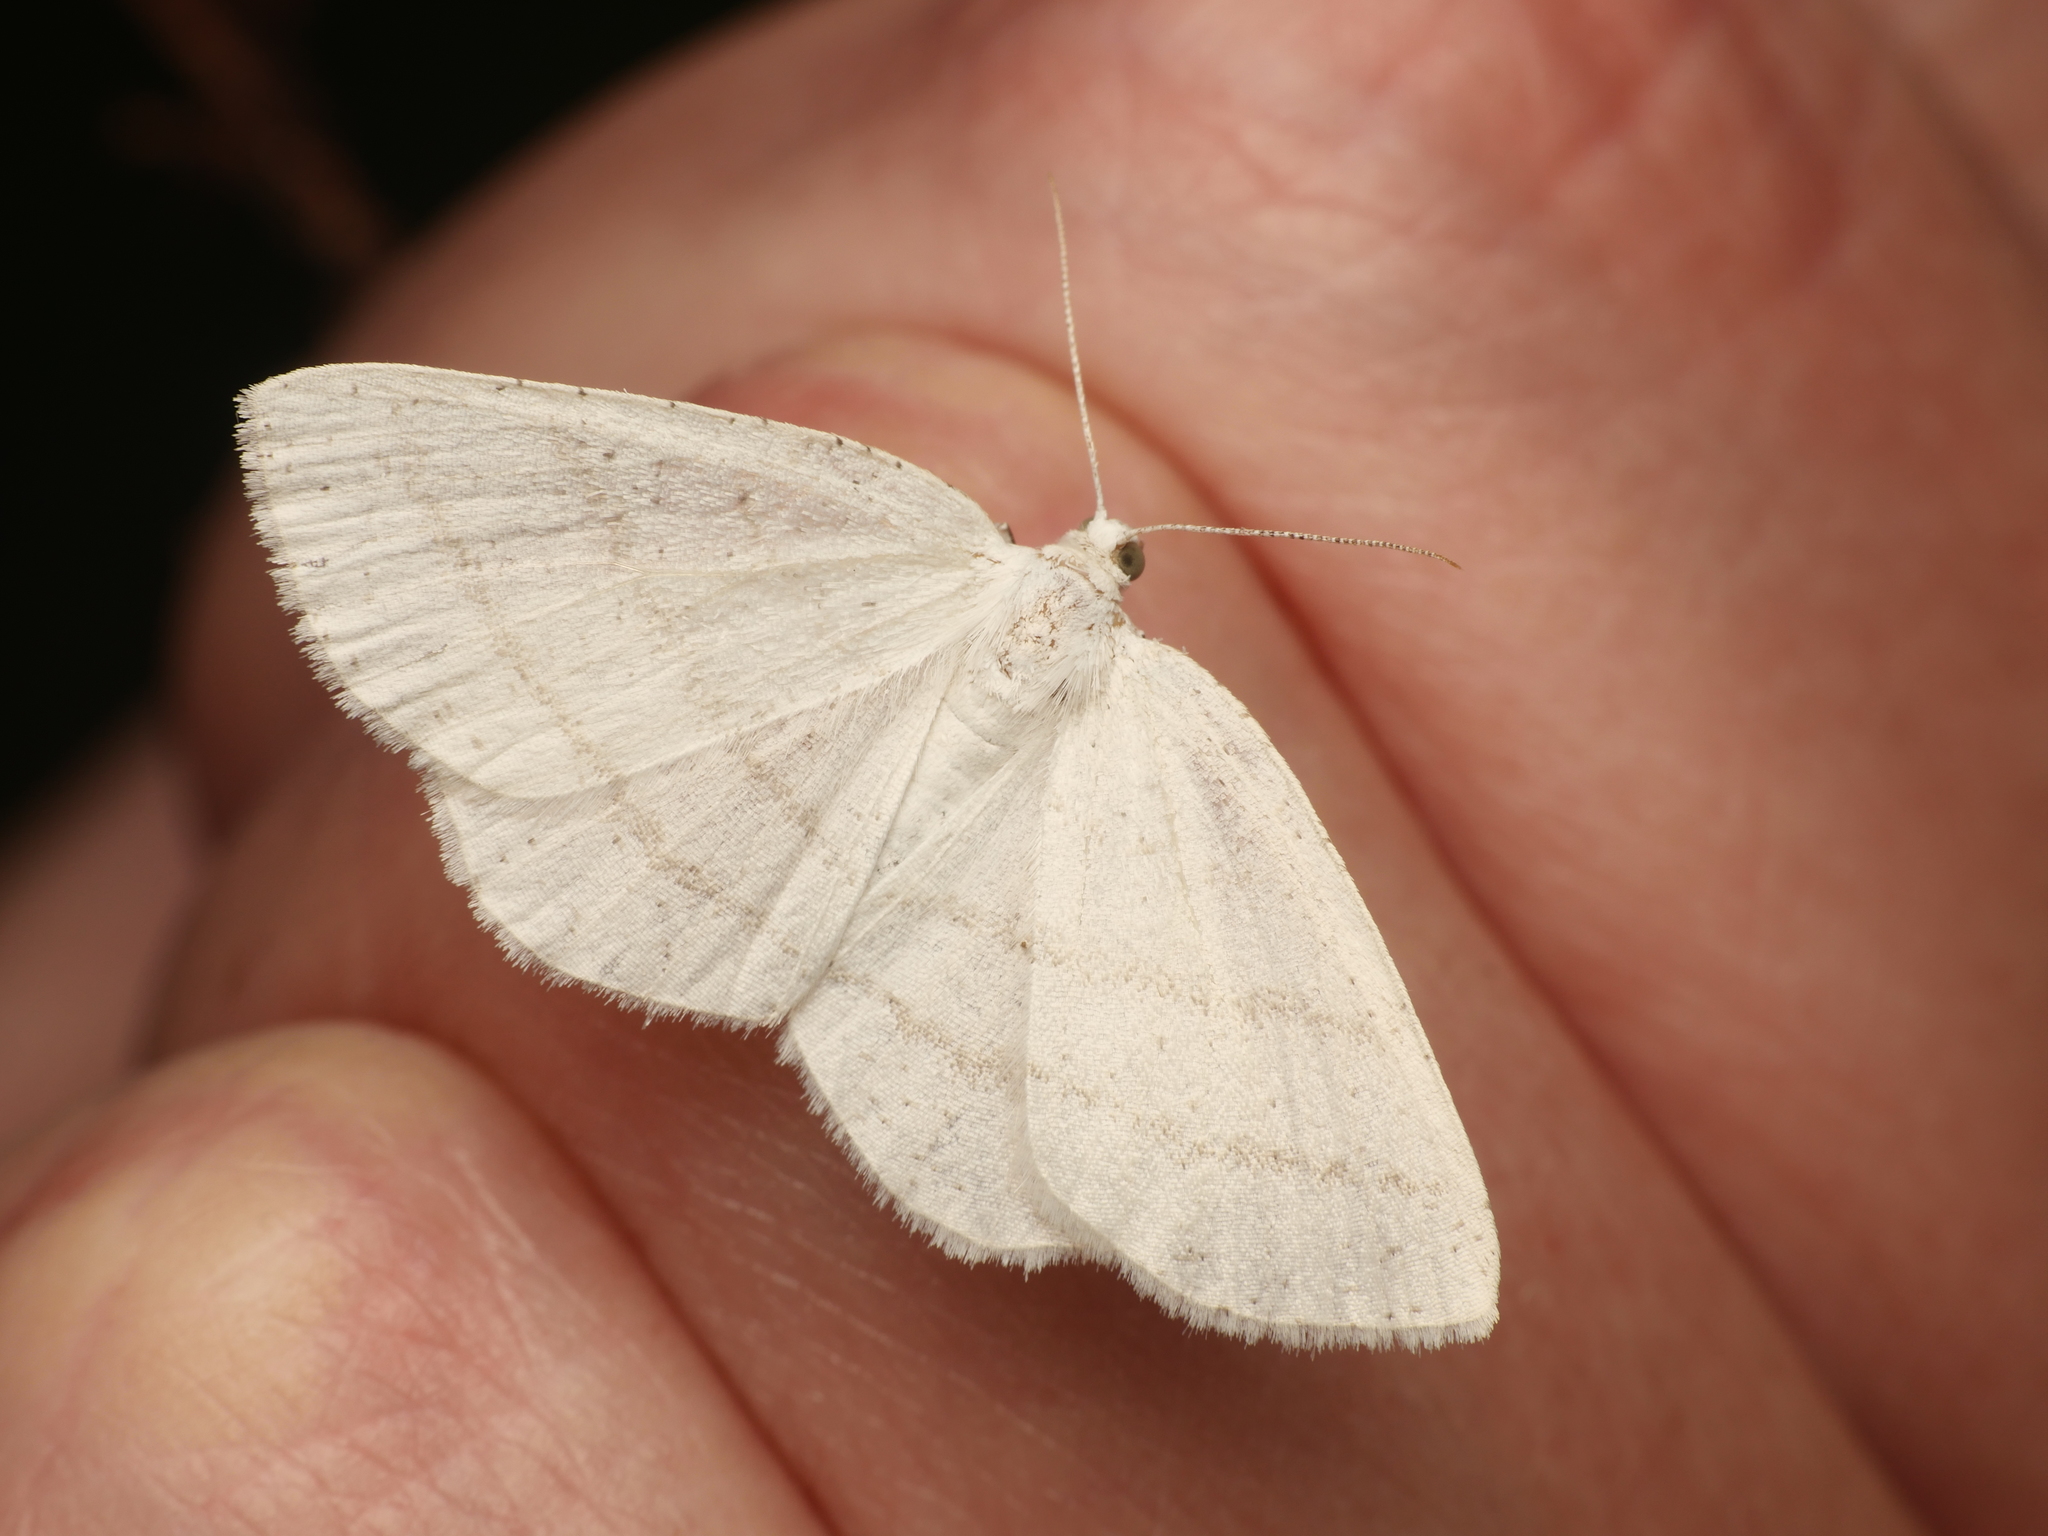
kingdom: Animalia
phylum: Arthropoda
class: Insecta
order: Lepidoptera
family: Geometridae
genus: Cabera
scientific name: Cabera pusaria
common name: Common white wave
